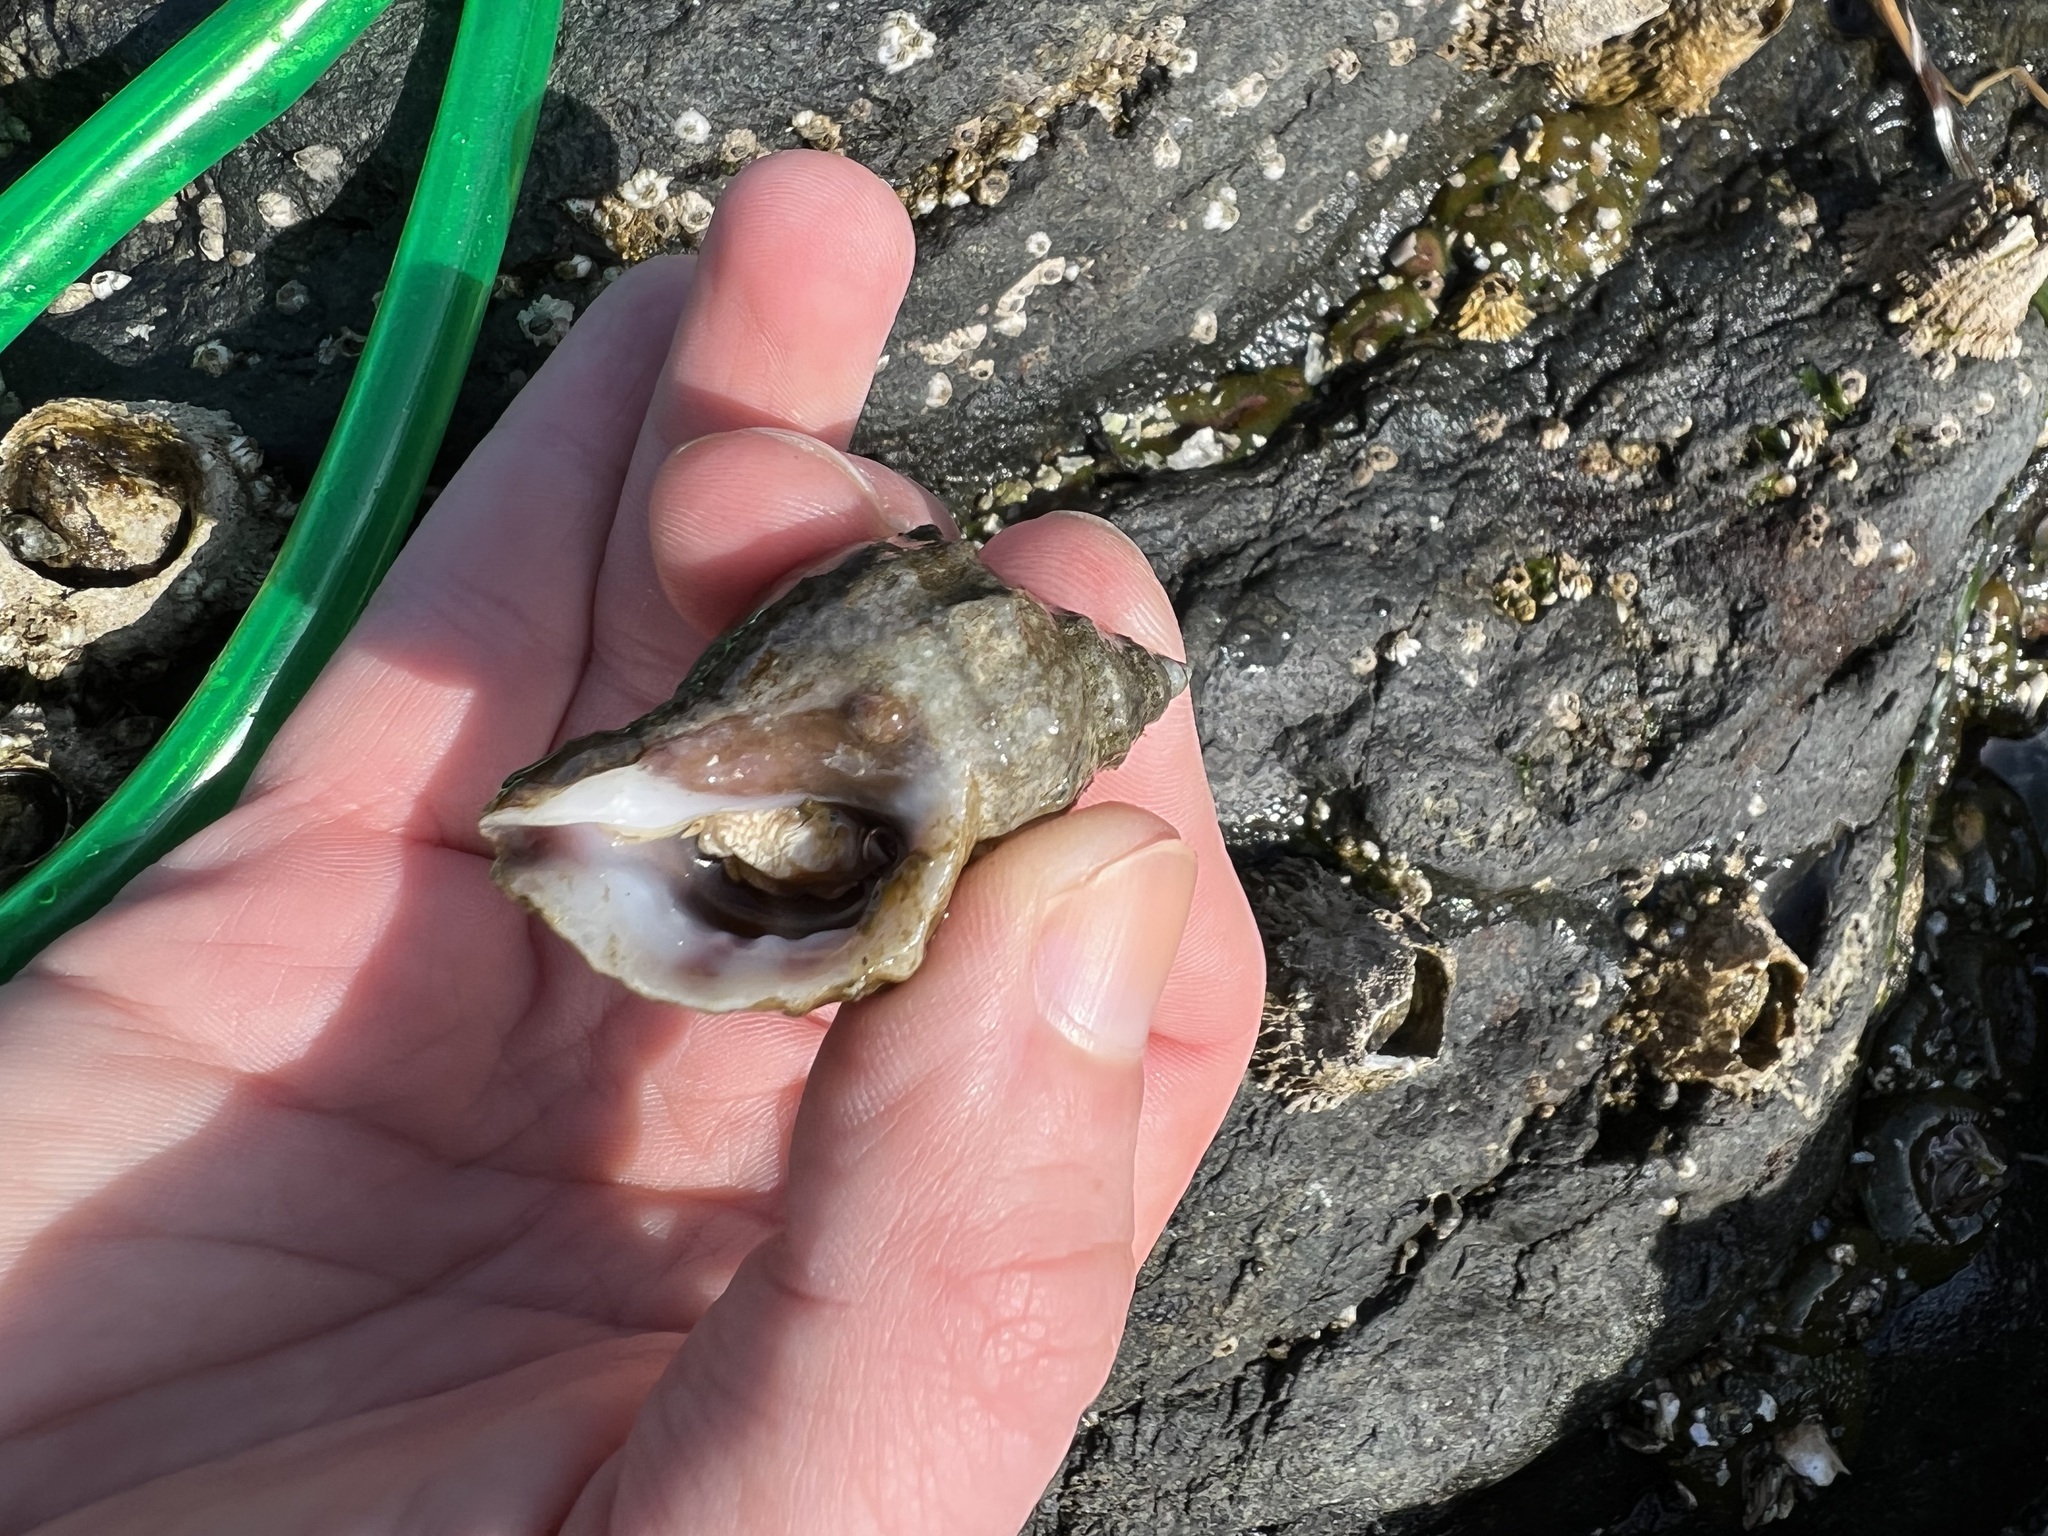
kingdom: Animalia
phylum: Mollusca
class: Gastropoda
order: Neogastropoda
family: Muricidae
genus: Nucella
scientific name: Nucella lamellosa
